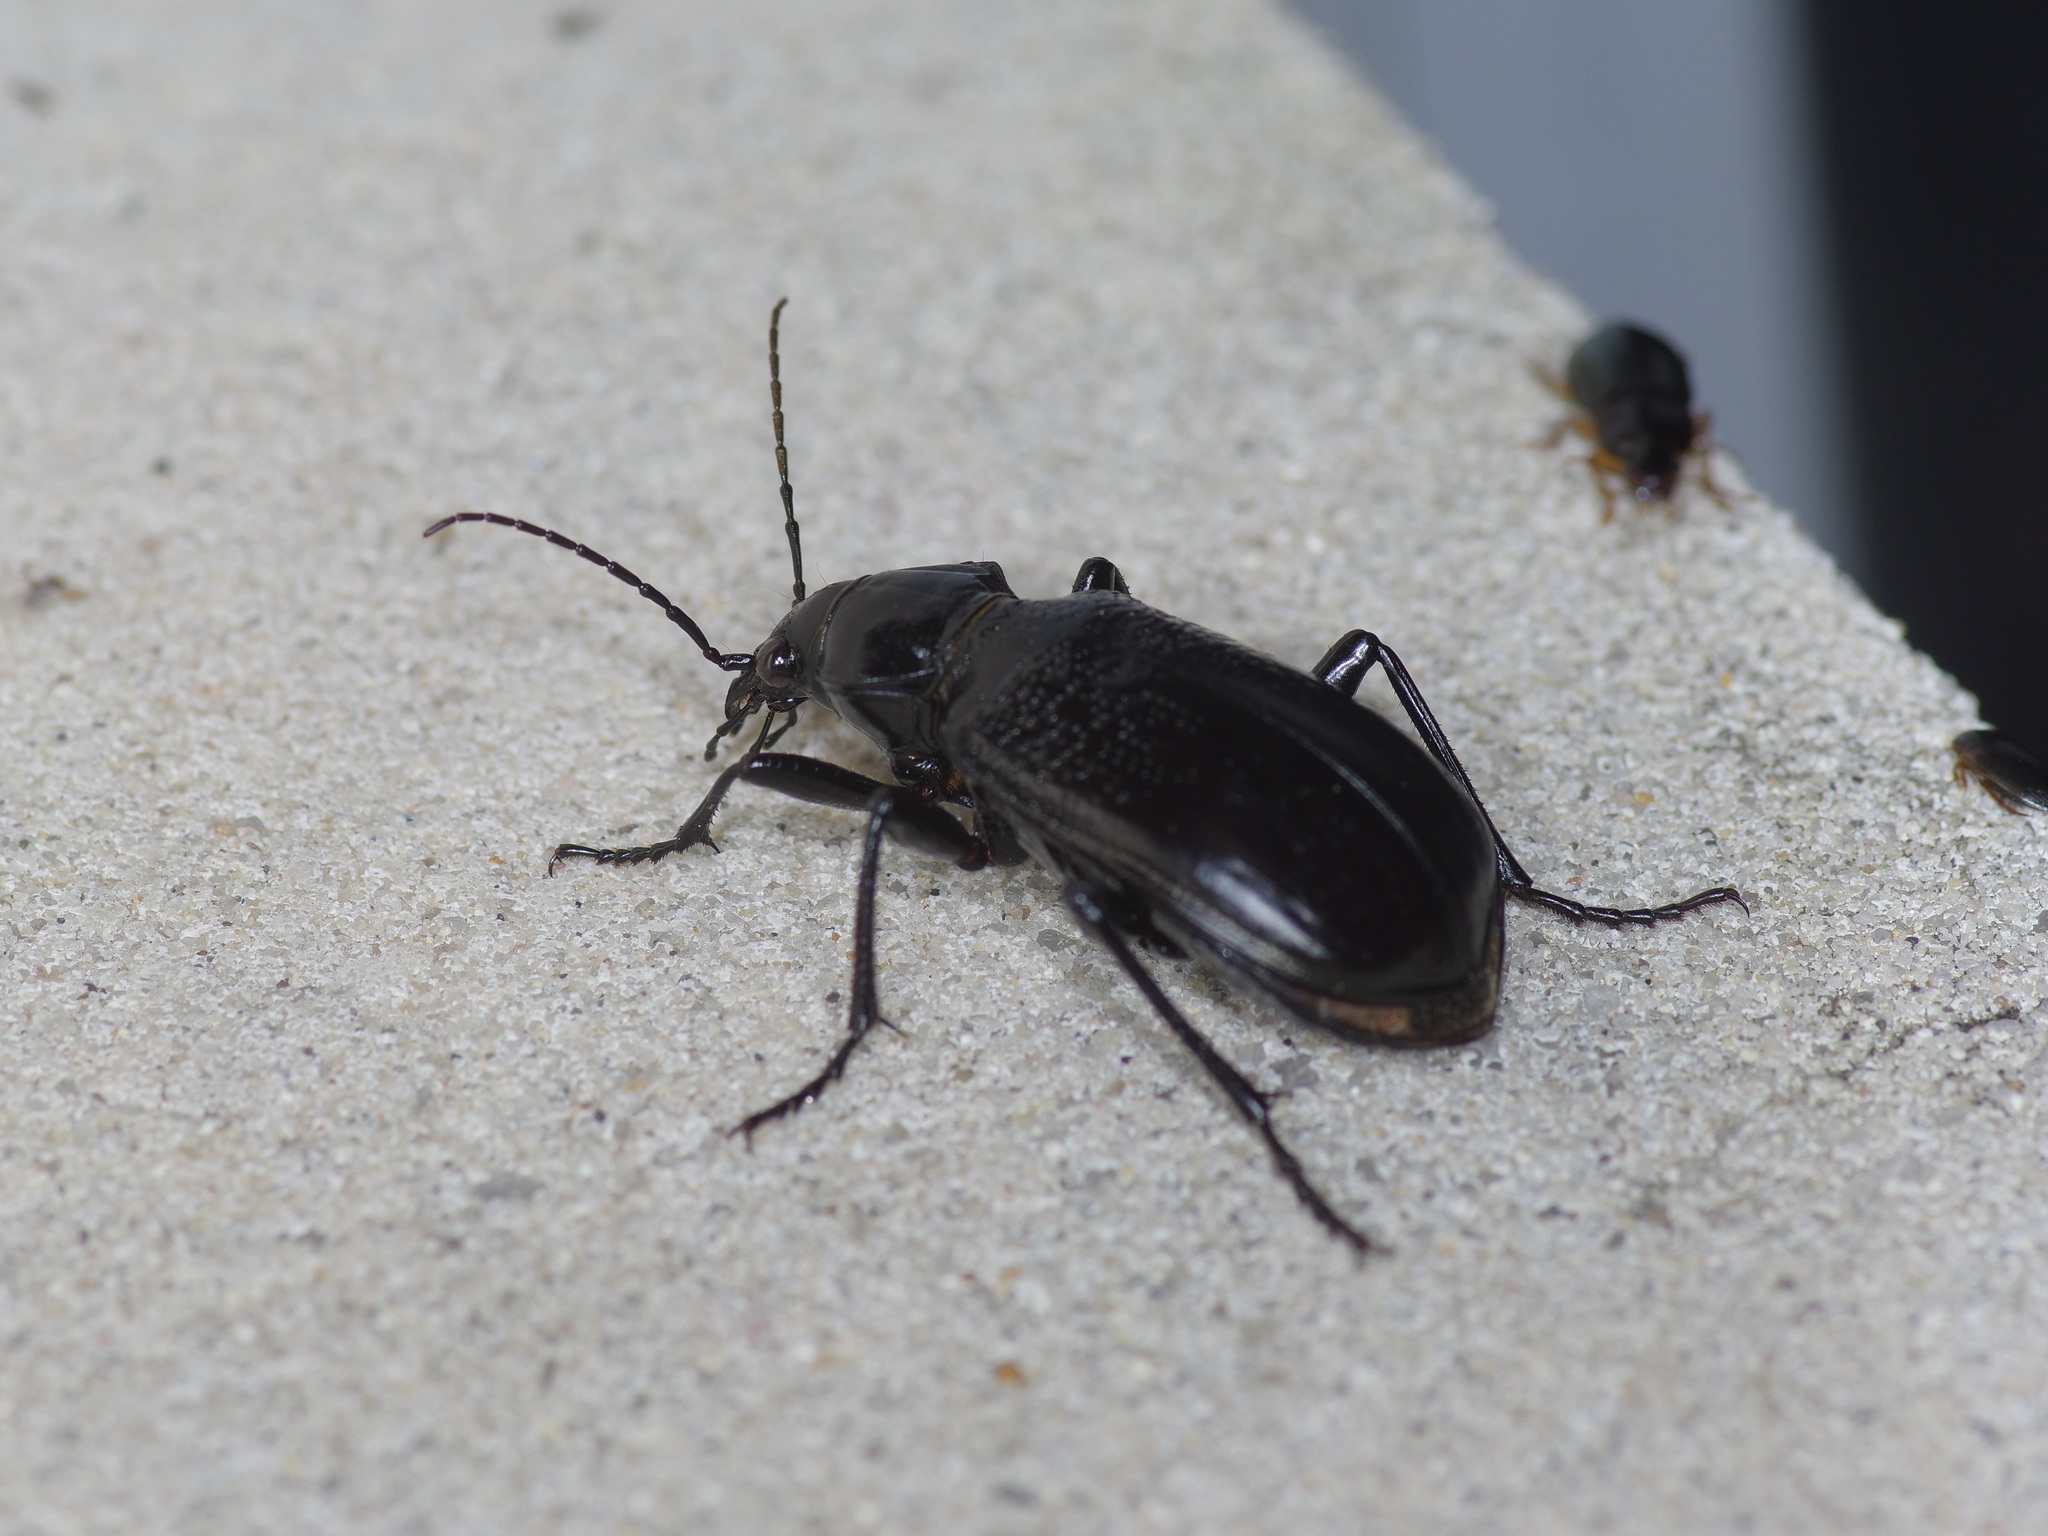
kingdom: Animalia
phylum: Arthropoda
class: Insecta
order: Coleoptera
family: Carabidae
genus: Calosoma
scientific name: Calosoma marginale
